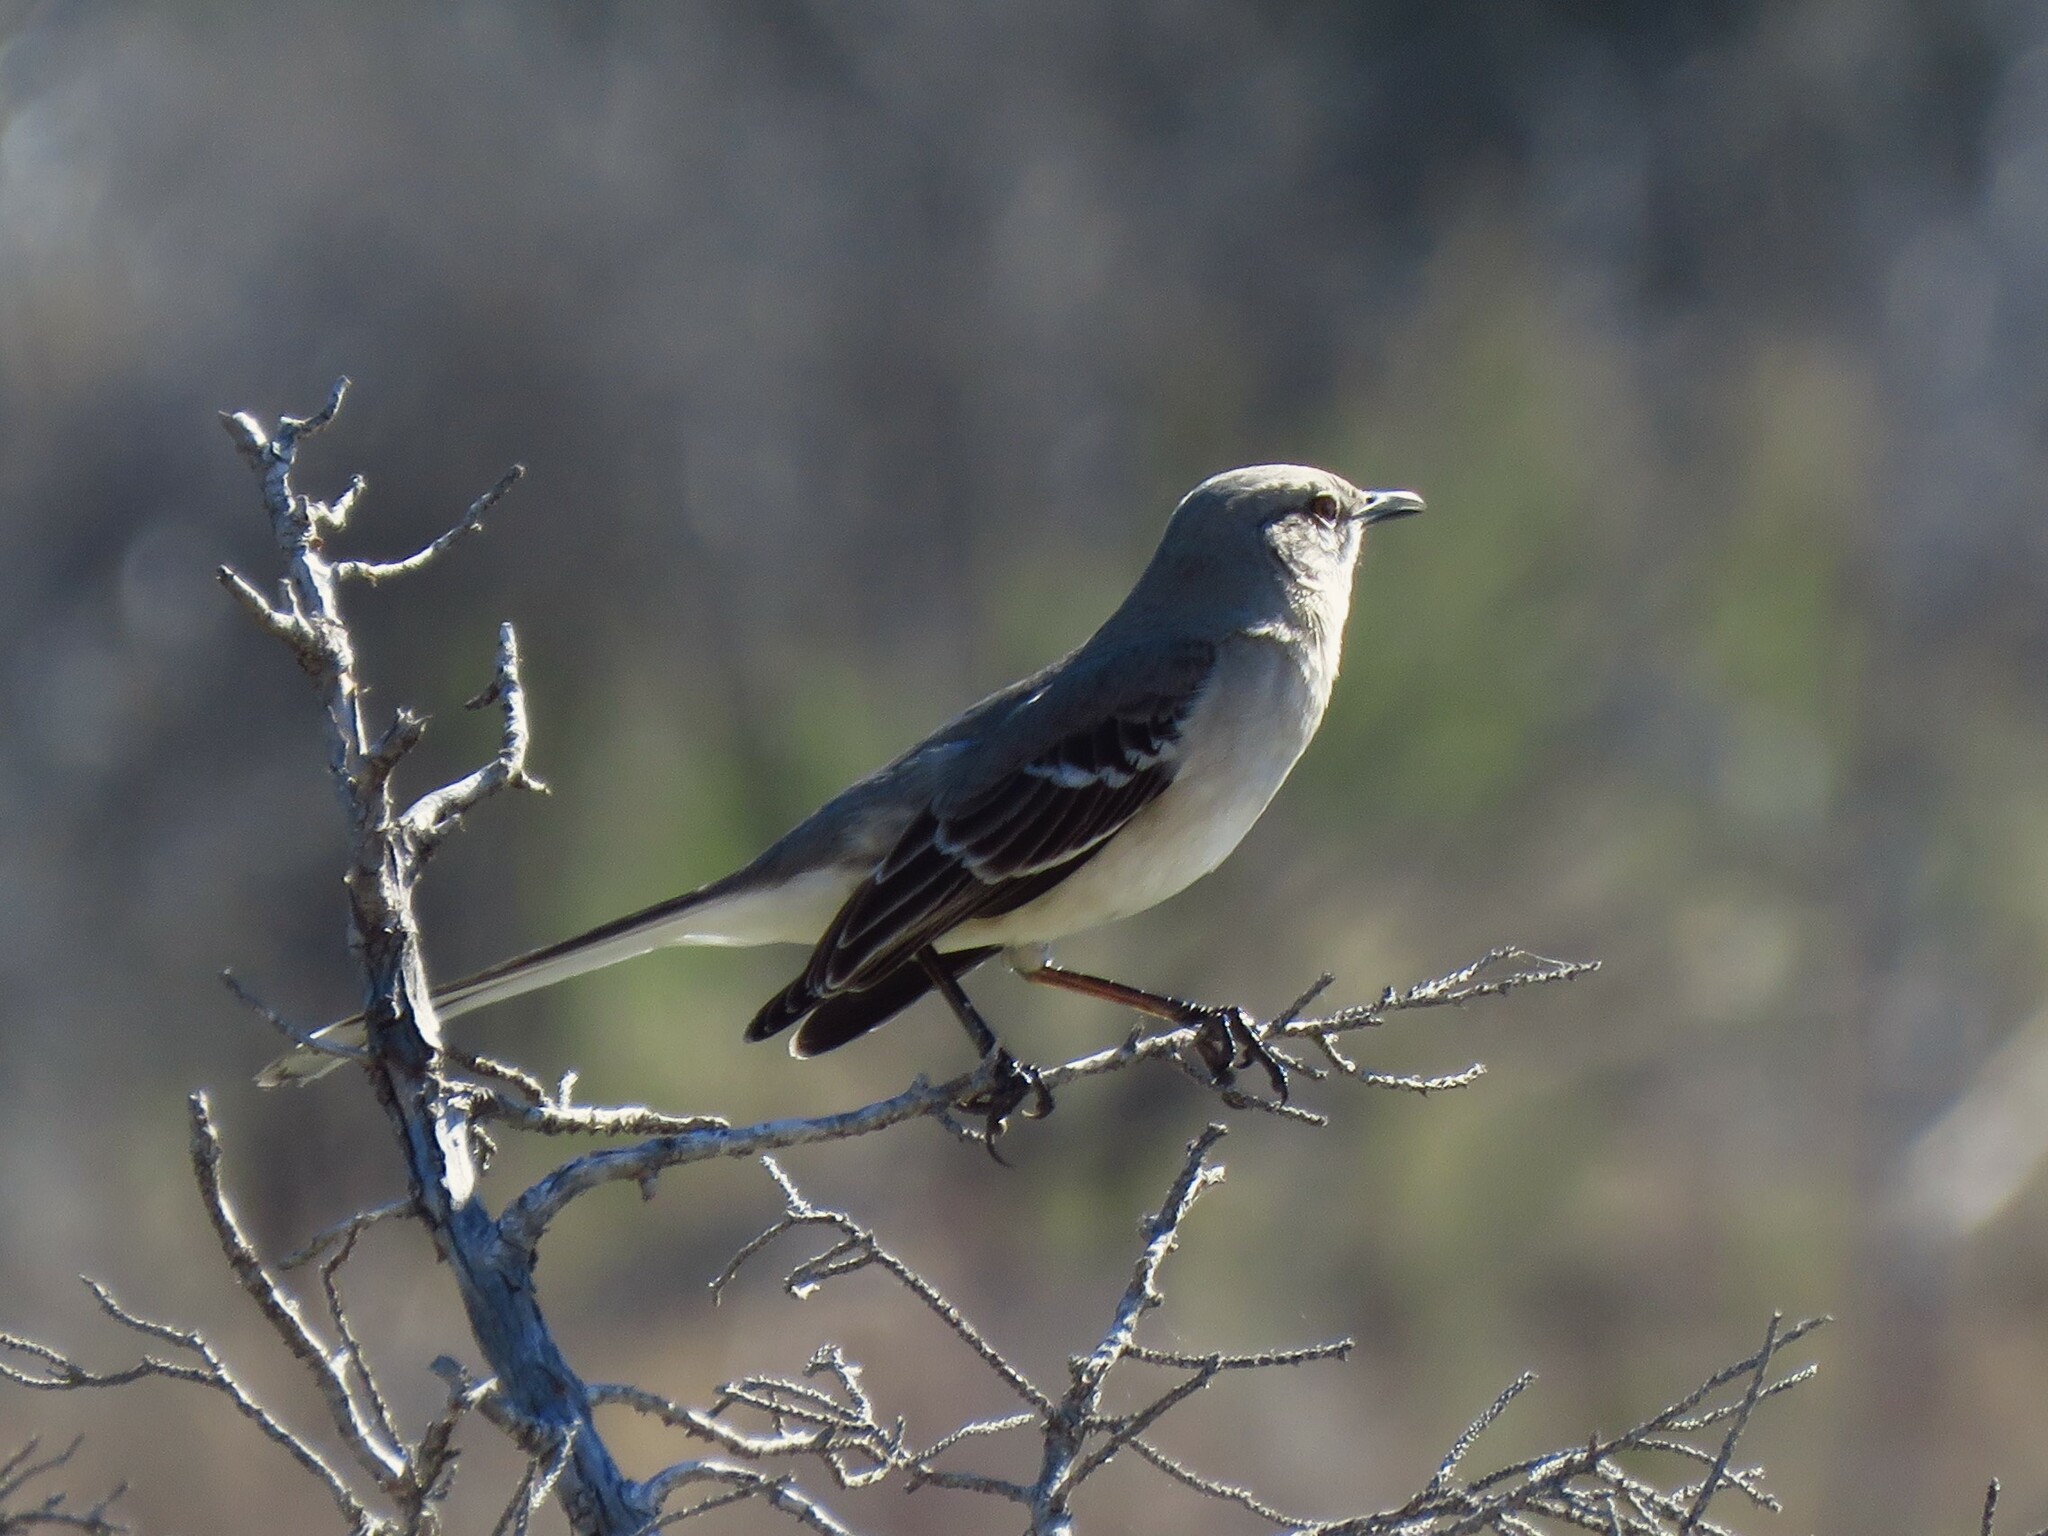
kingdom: Animalia
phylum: Chordata
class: Aves
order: Passeriformes
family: Mimidae
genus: Mimus
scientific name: Mimus polyglottos
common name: Northern mockingbird
